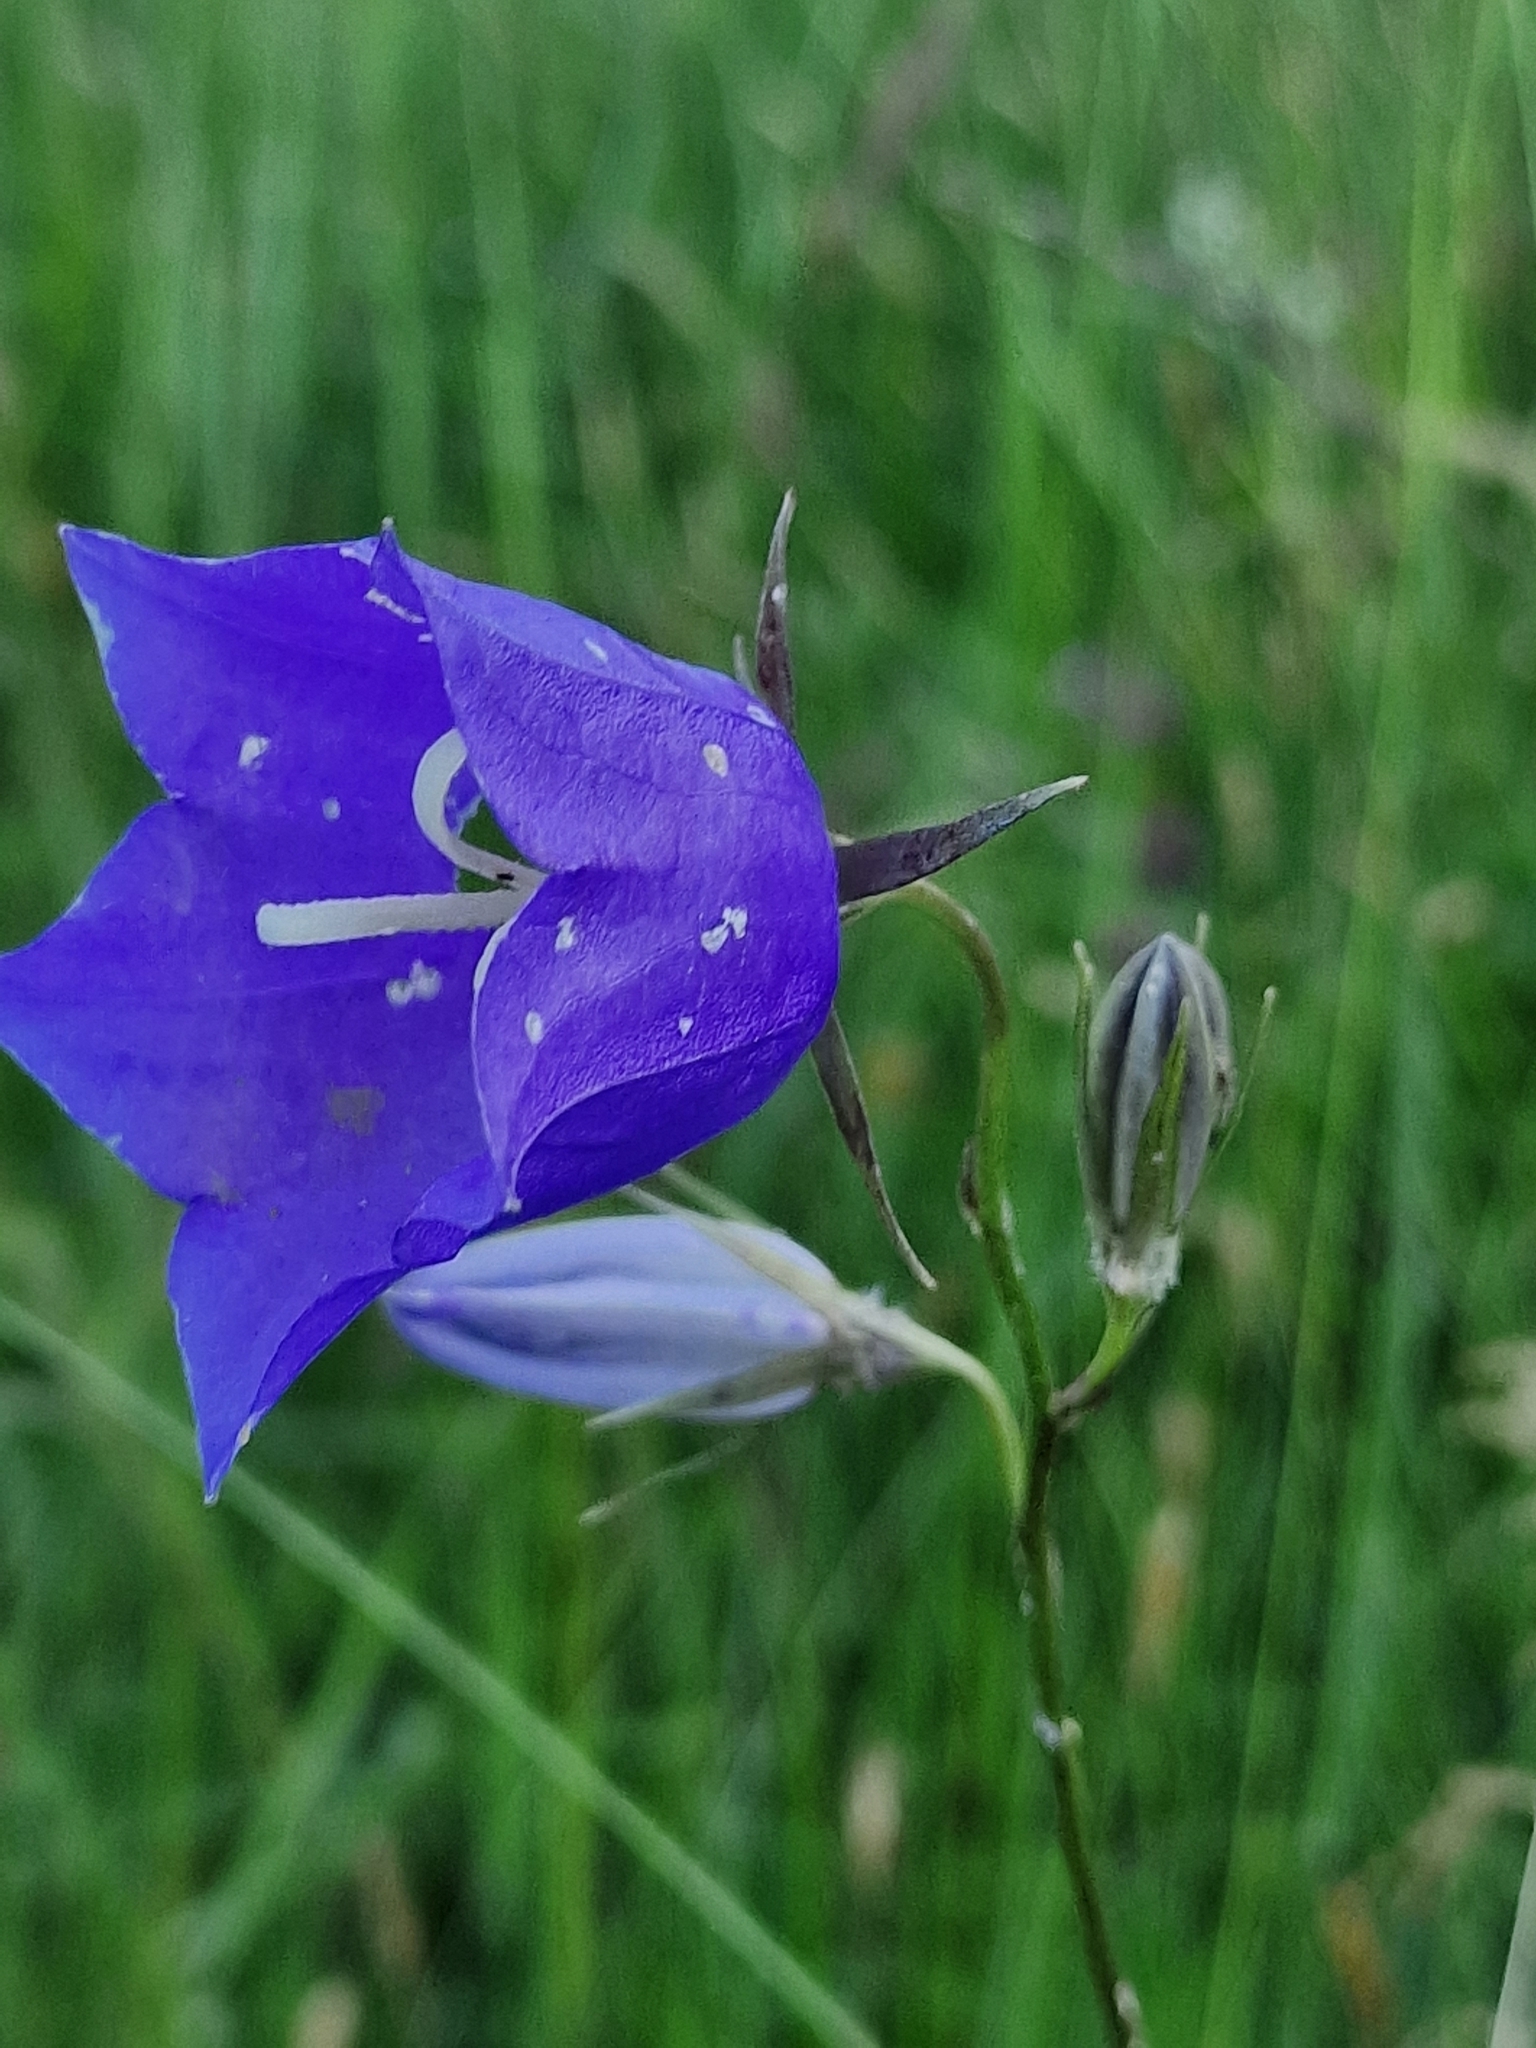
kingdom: Plantae
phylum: Tracheophyta
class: Magnoliopsida
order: Asterales
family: Campanulaceae
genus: Campanula
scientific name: Campanula persicifolia
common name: Peach-leaved bellflower
